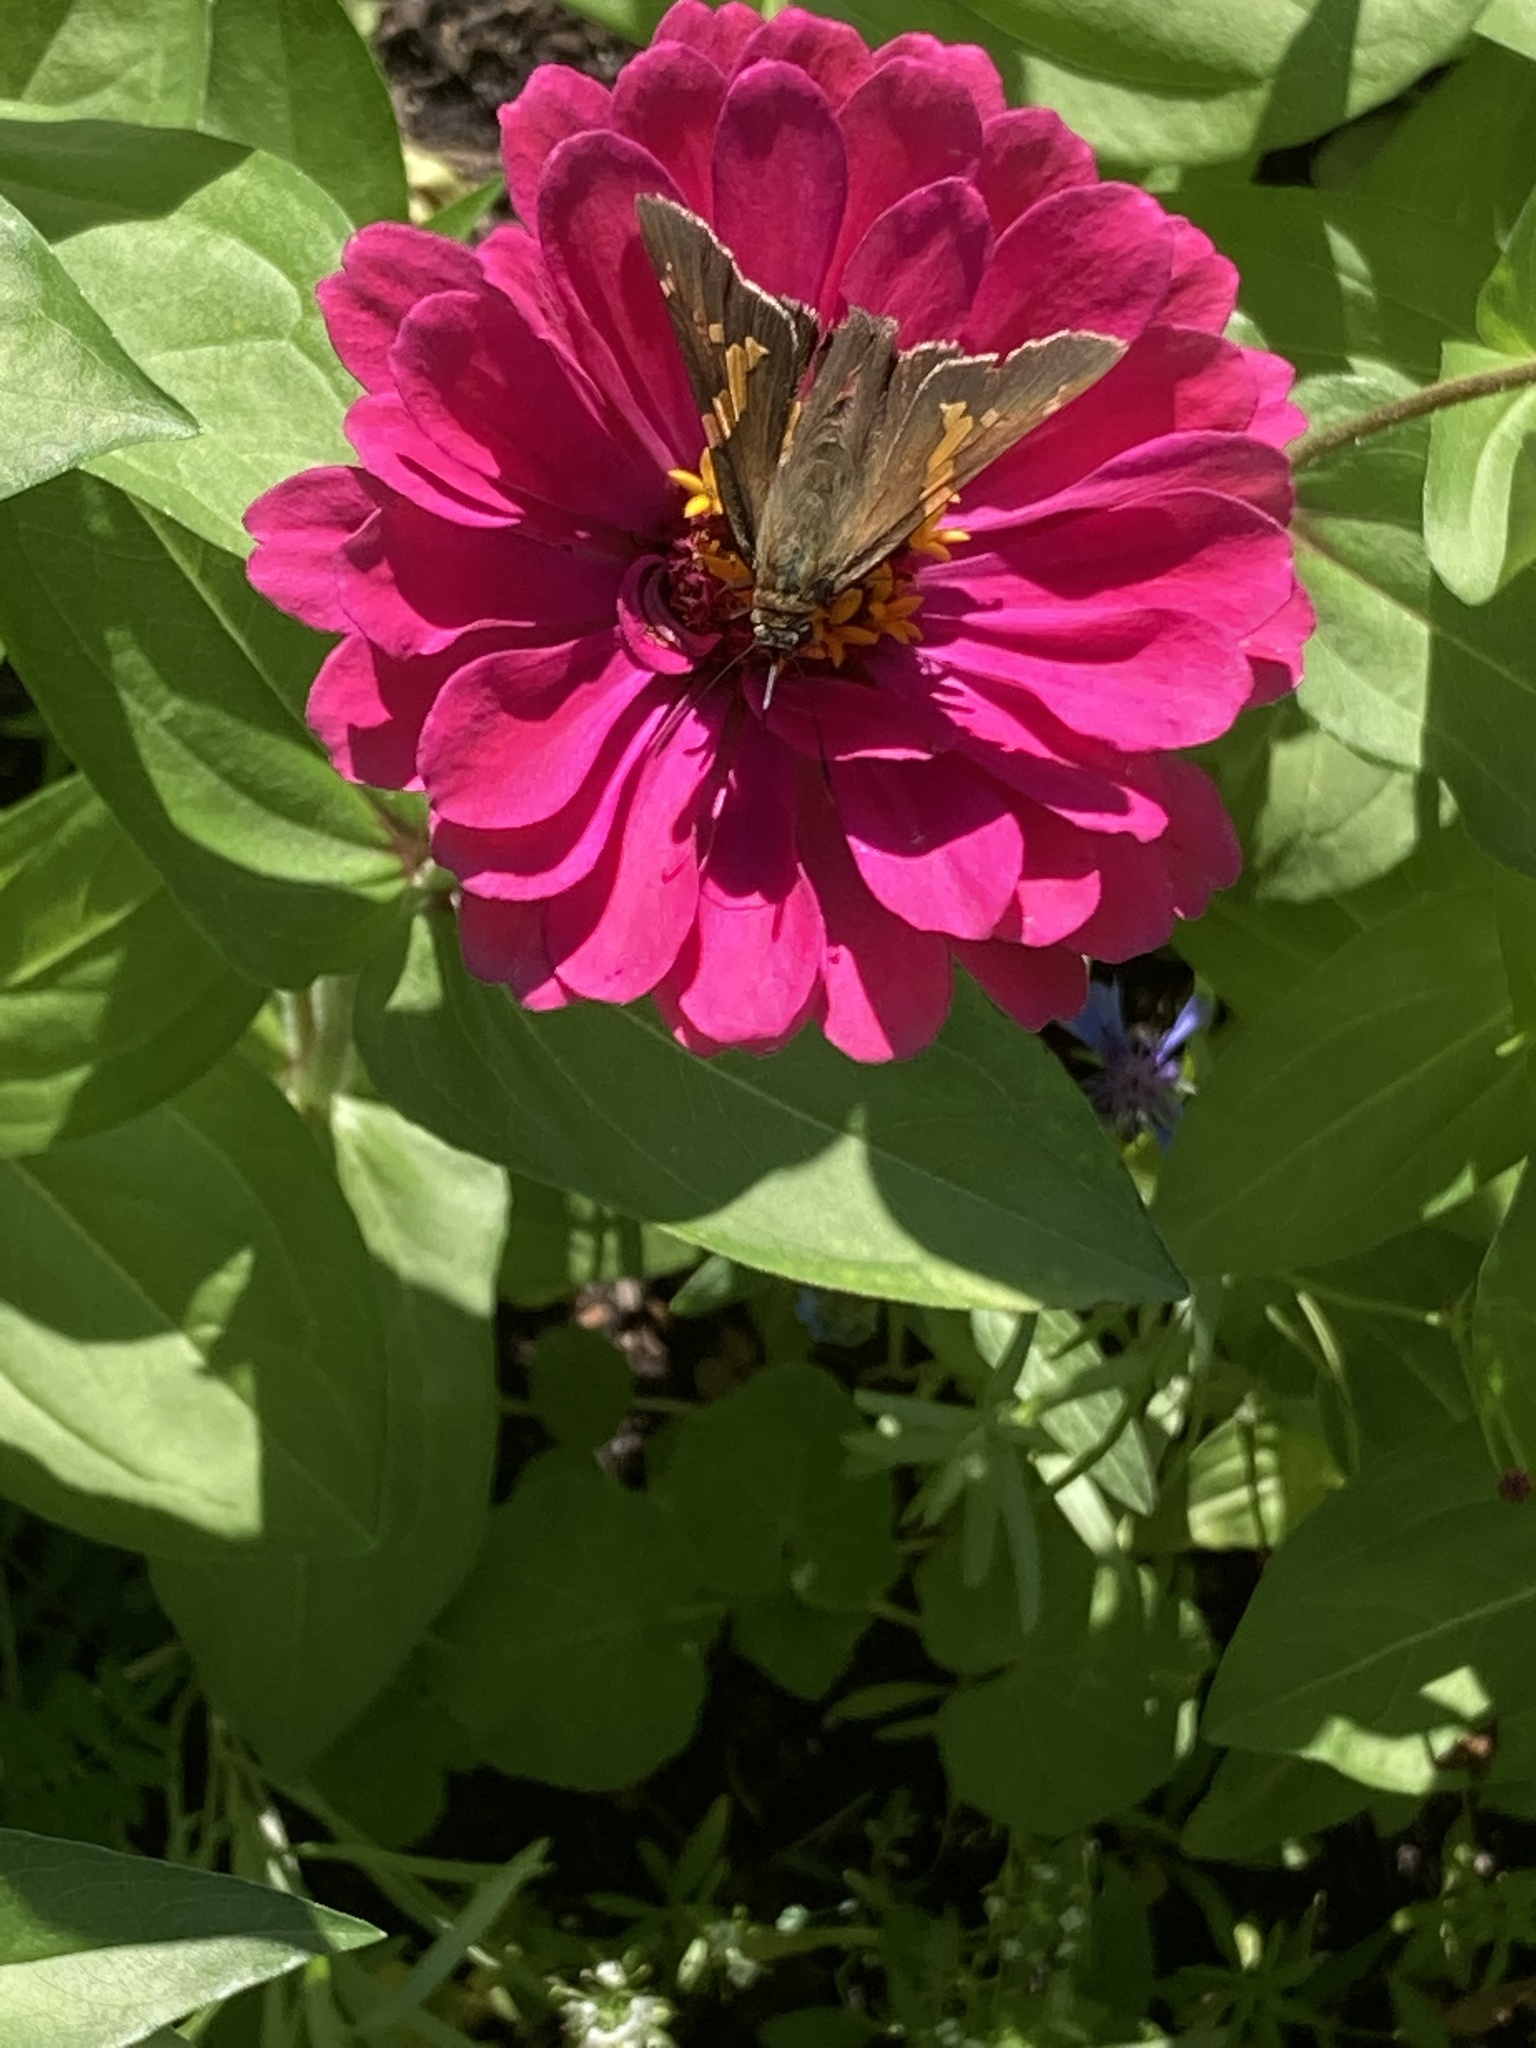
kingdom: Animalia
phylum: Arthropoda
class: Insecta
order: Lepidoptera
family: Hesperiidae
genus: Epargyreus
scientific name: Epargyreus clarus
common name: Silver-spotted skipper
